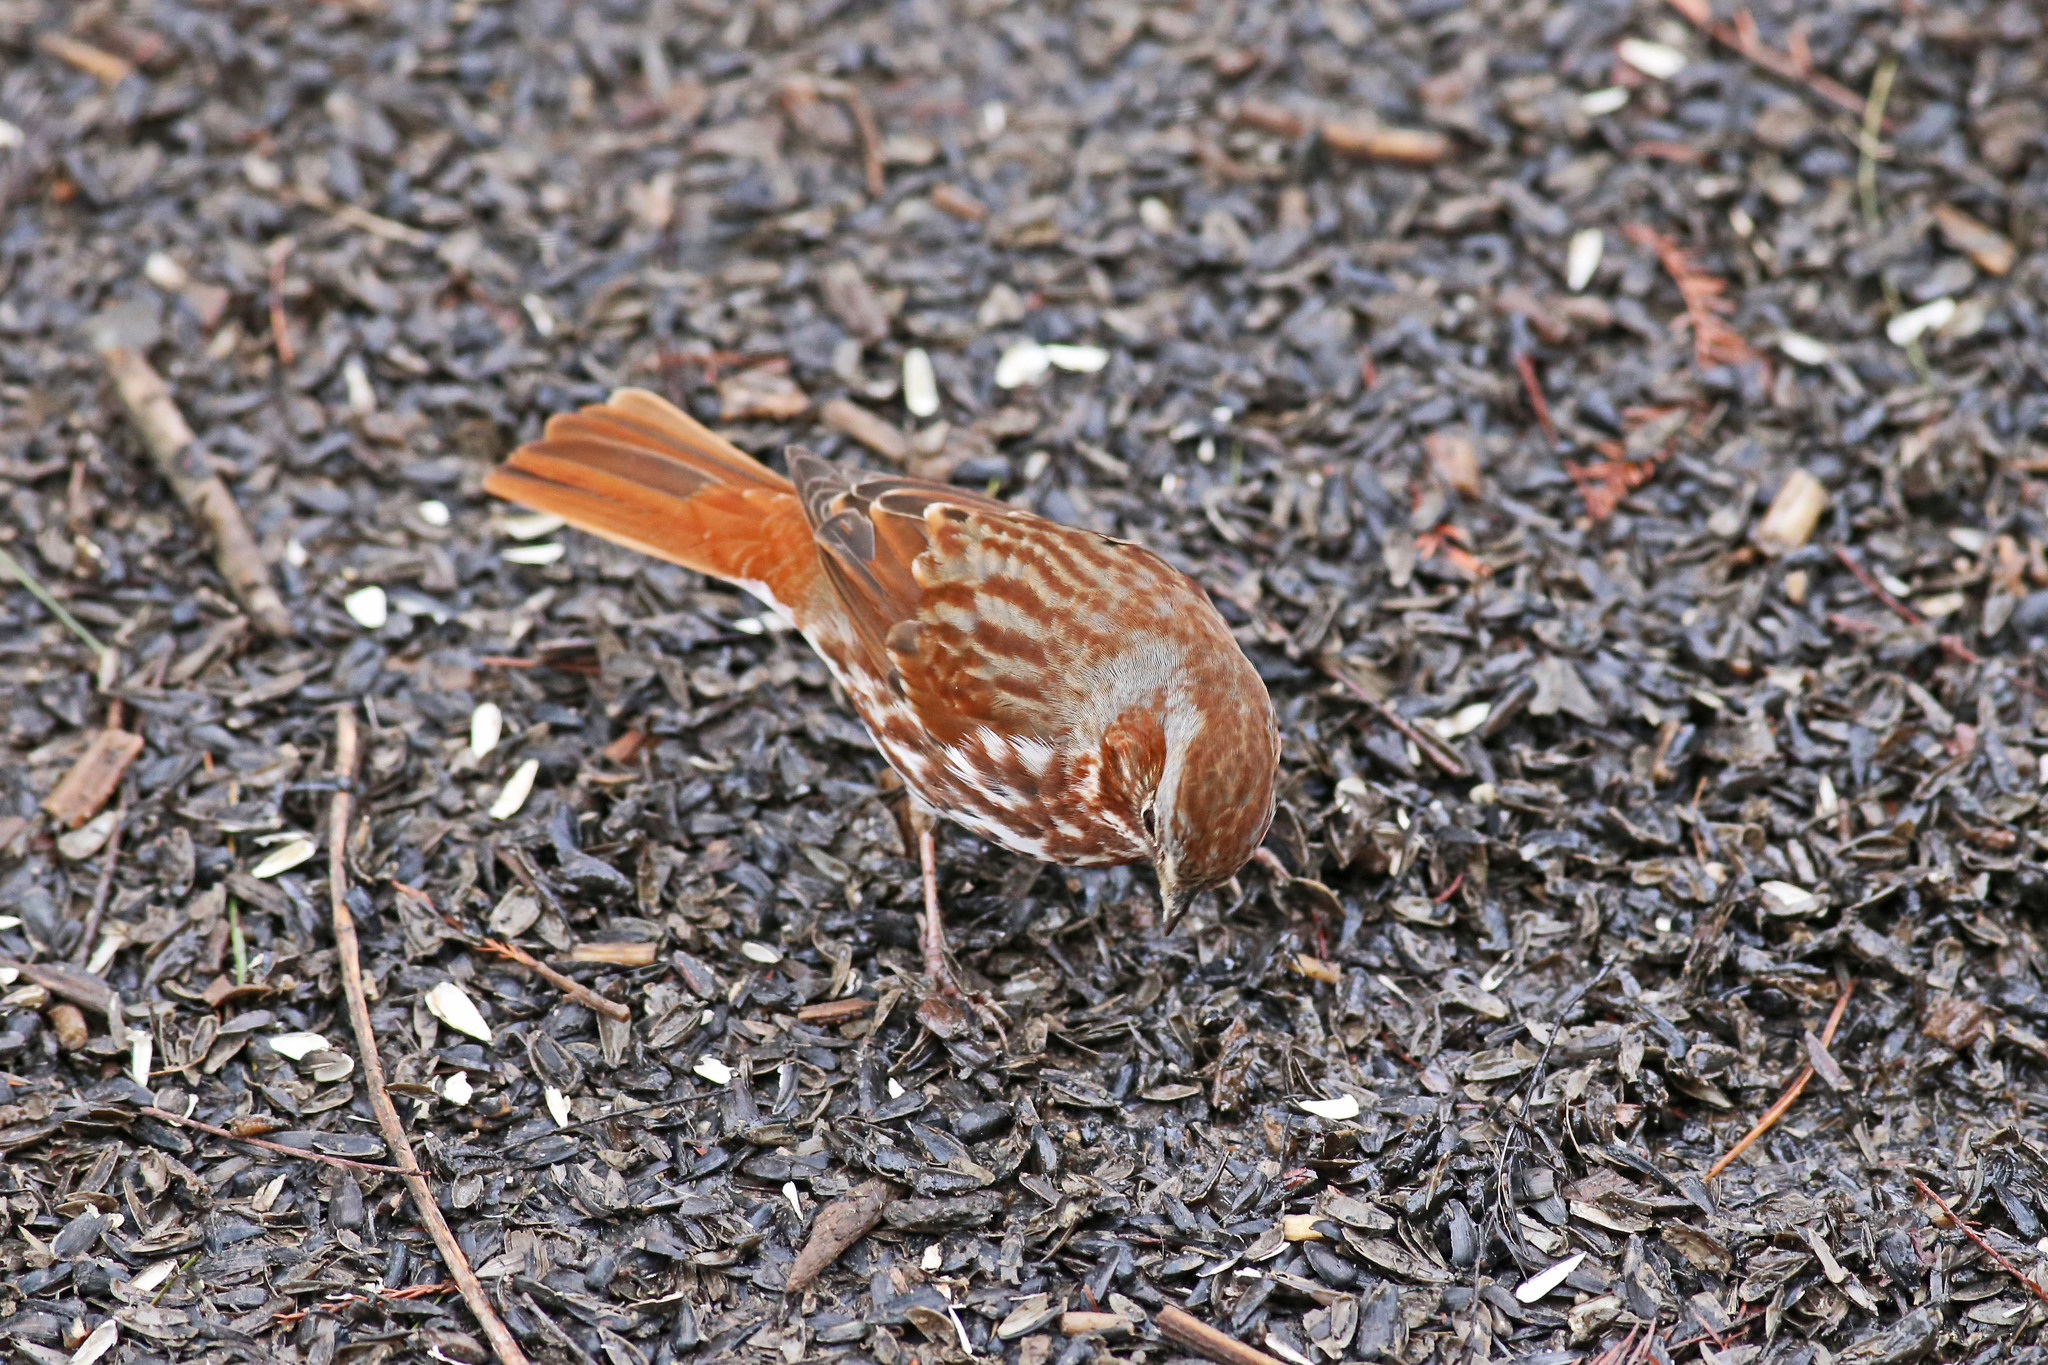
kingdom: Animalia
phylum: Chordata
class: Aves
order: Passeriformes
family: Passerellidae
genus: Passerella
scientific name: Passerella iliaca
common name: Fox sparrow
